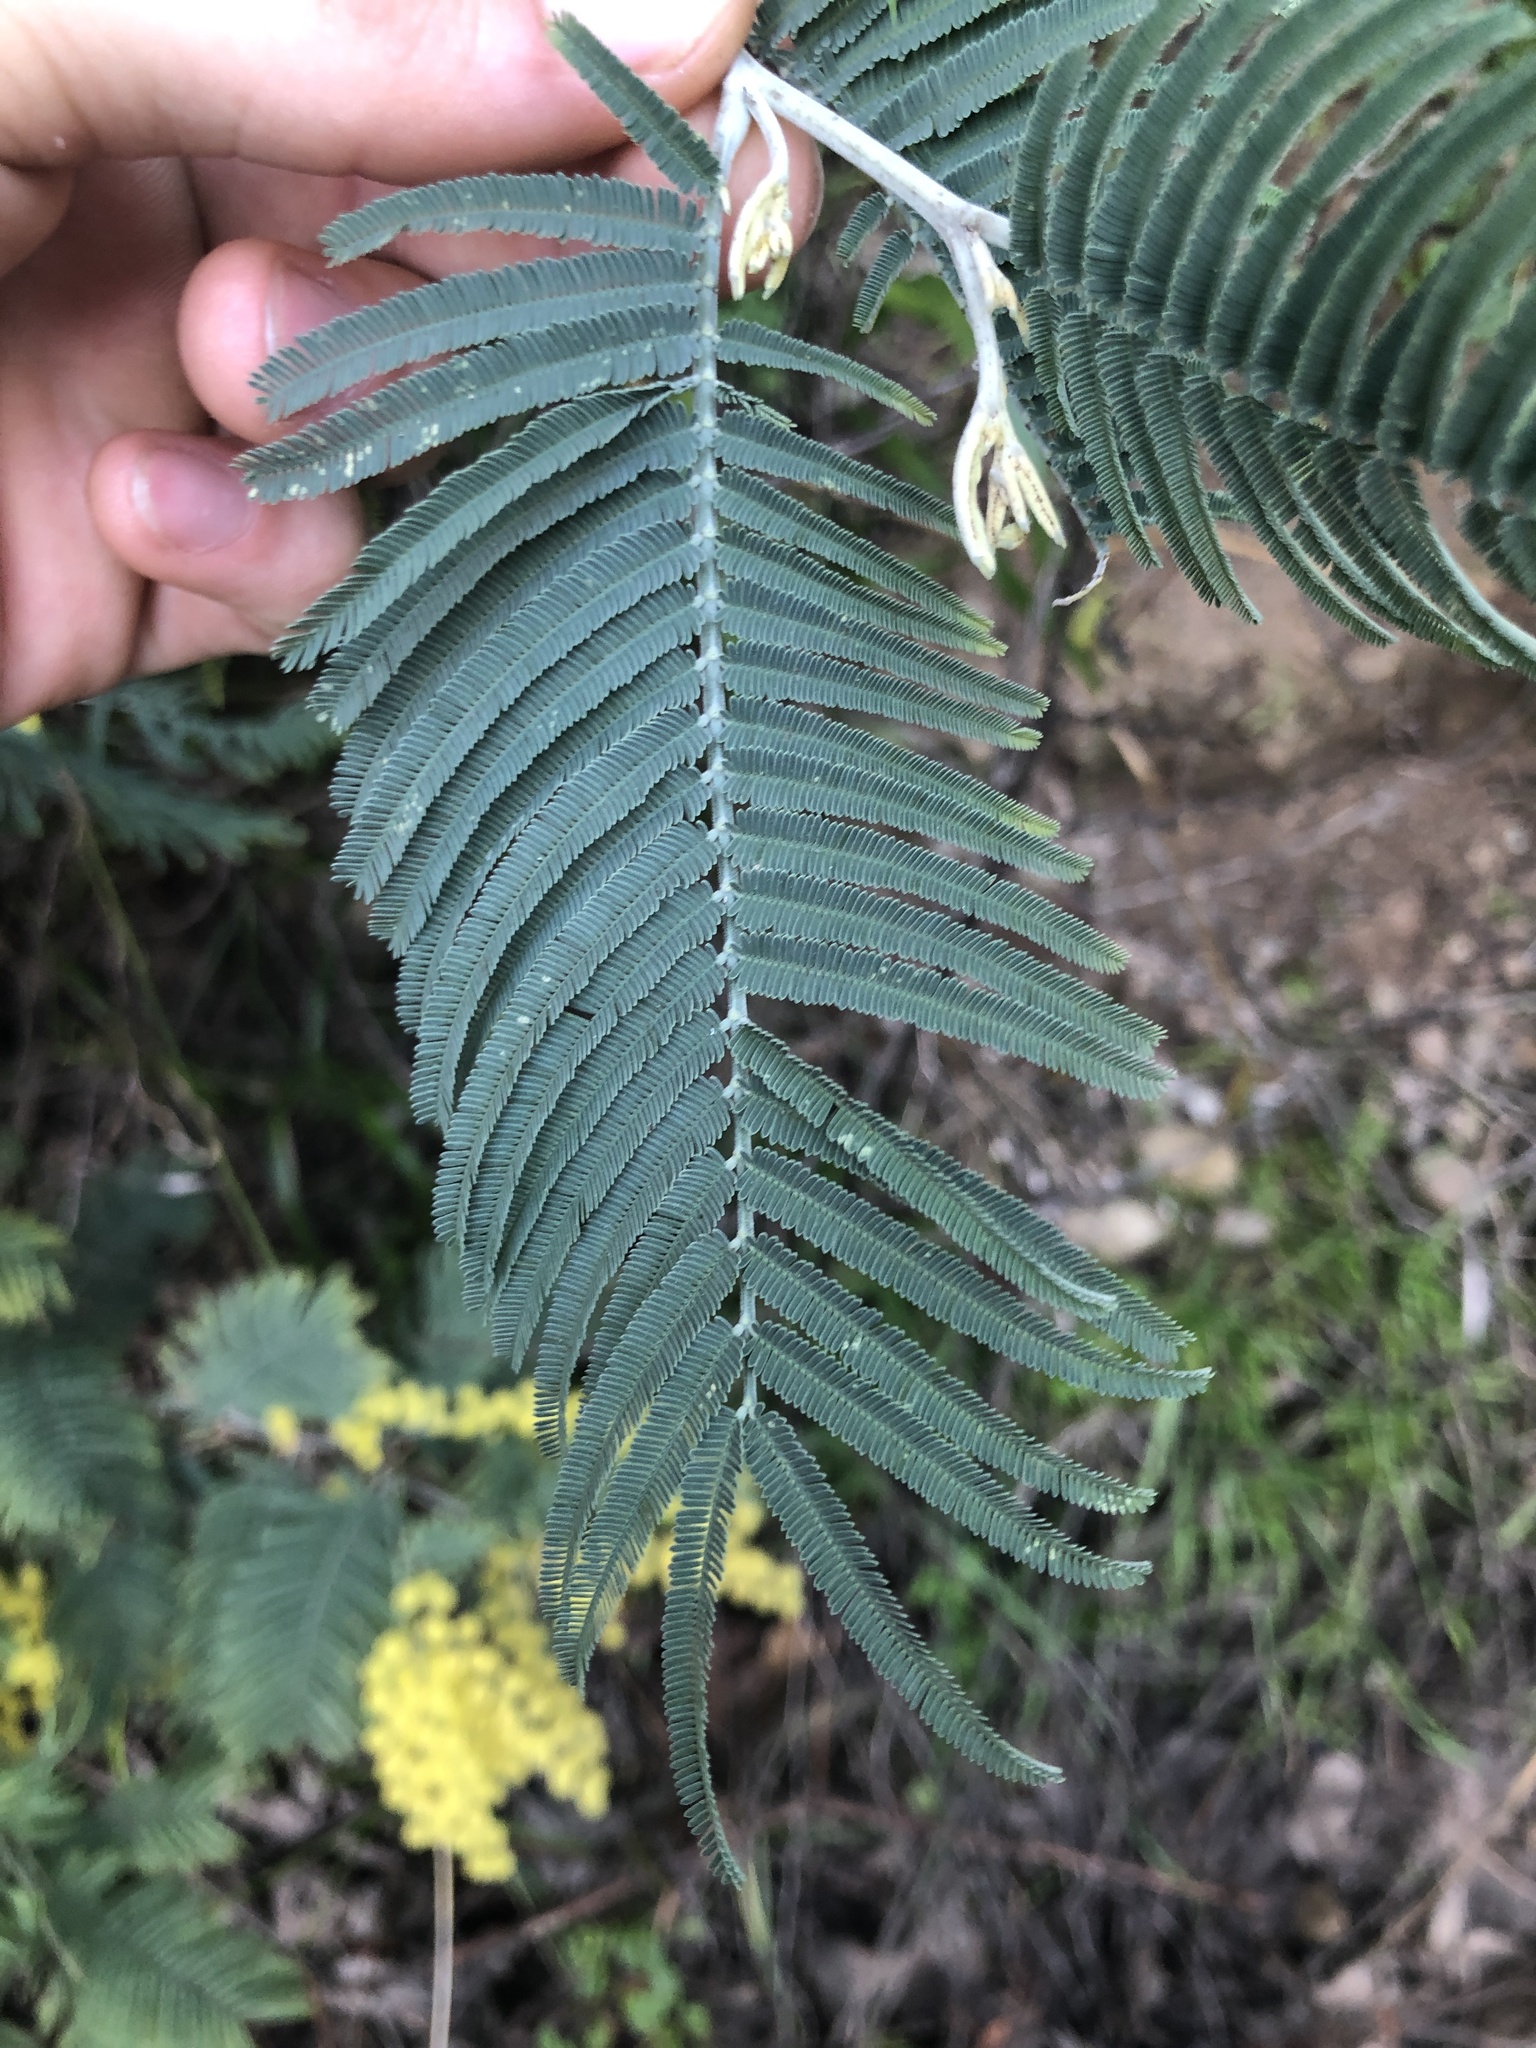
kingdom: Plantae
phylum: Tracheophyta
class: Magnoliopsida
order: Fabales
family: Fabaceae
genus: Acacia
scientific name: Acacia dealbata
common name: Silver wattle
